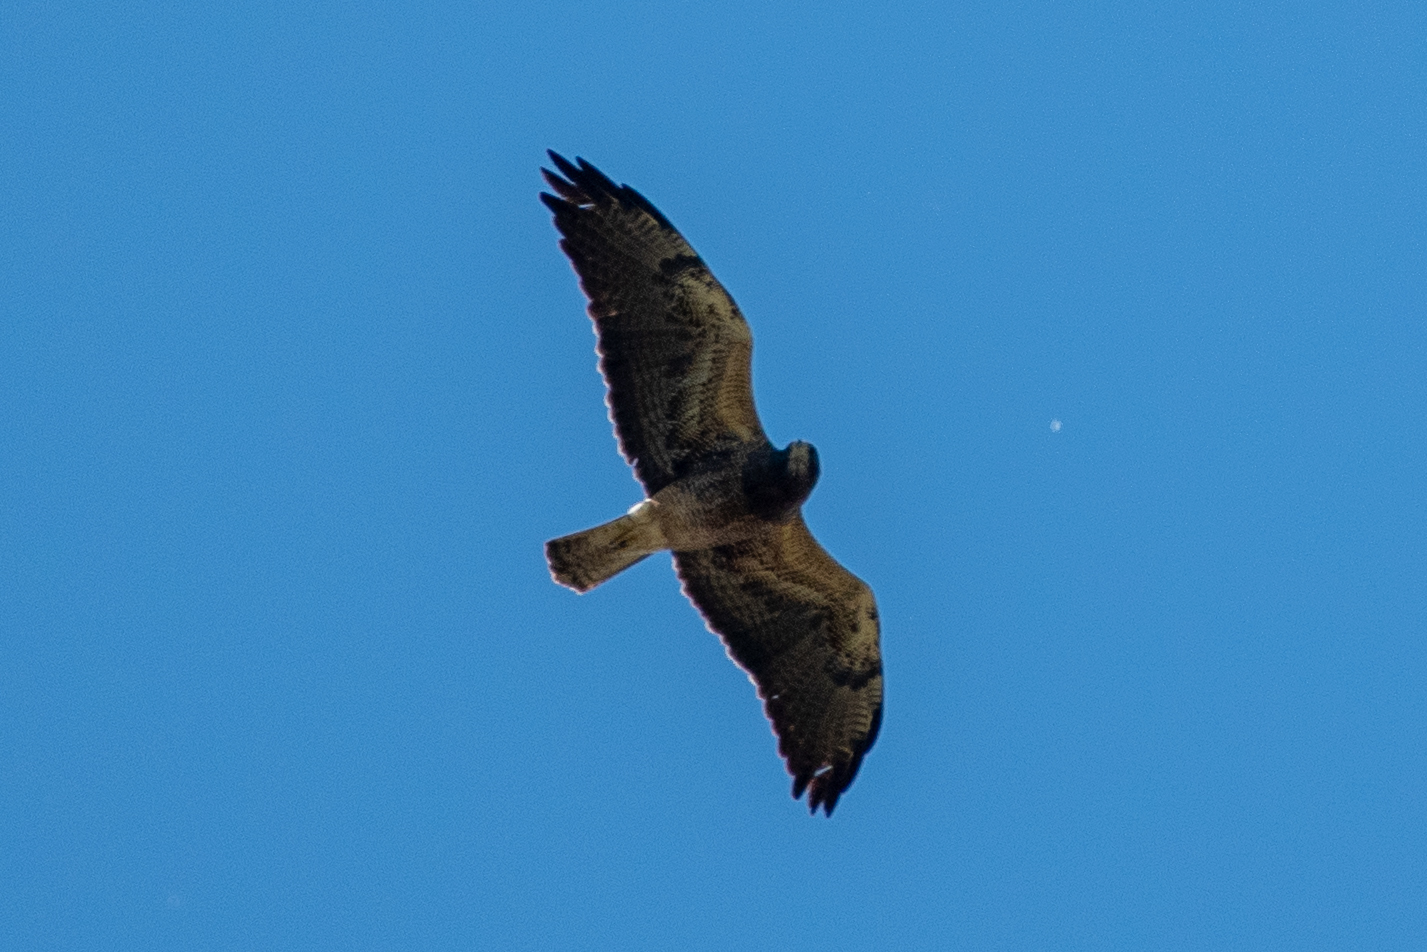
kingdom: Animalia
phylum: Chordata
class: Aves
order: Accipitriformes
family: Accipitridae
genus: Buteo
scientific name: Buteo swainsoni
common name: Swainson's hawk
